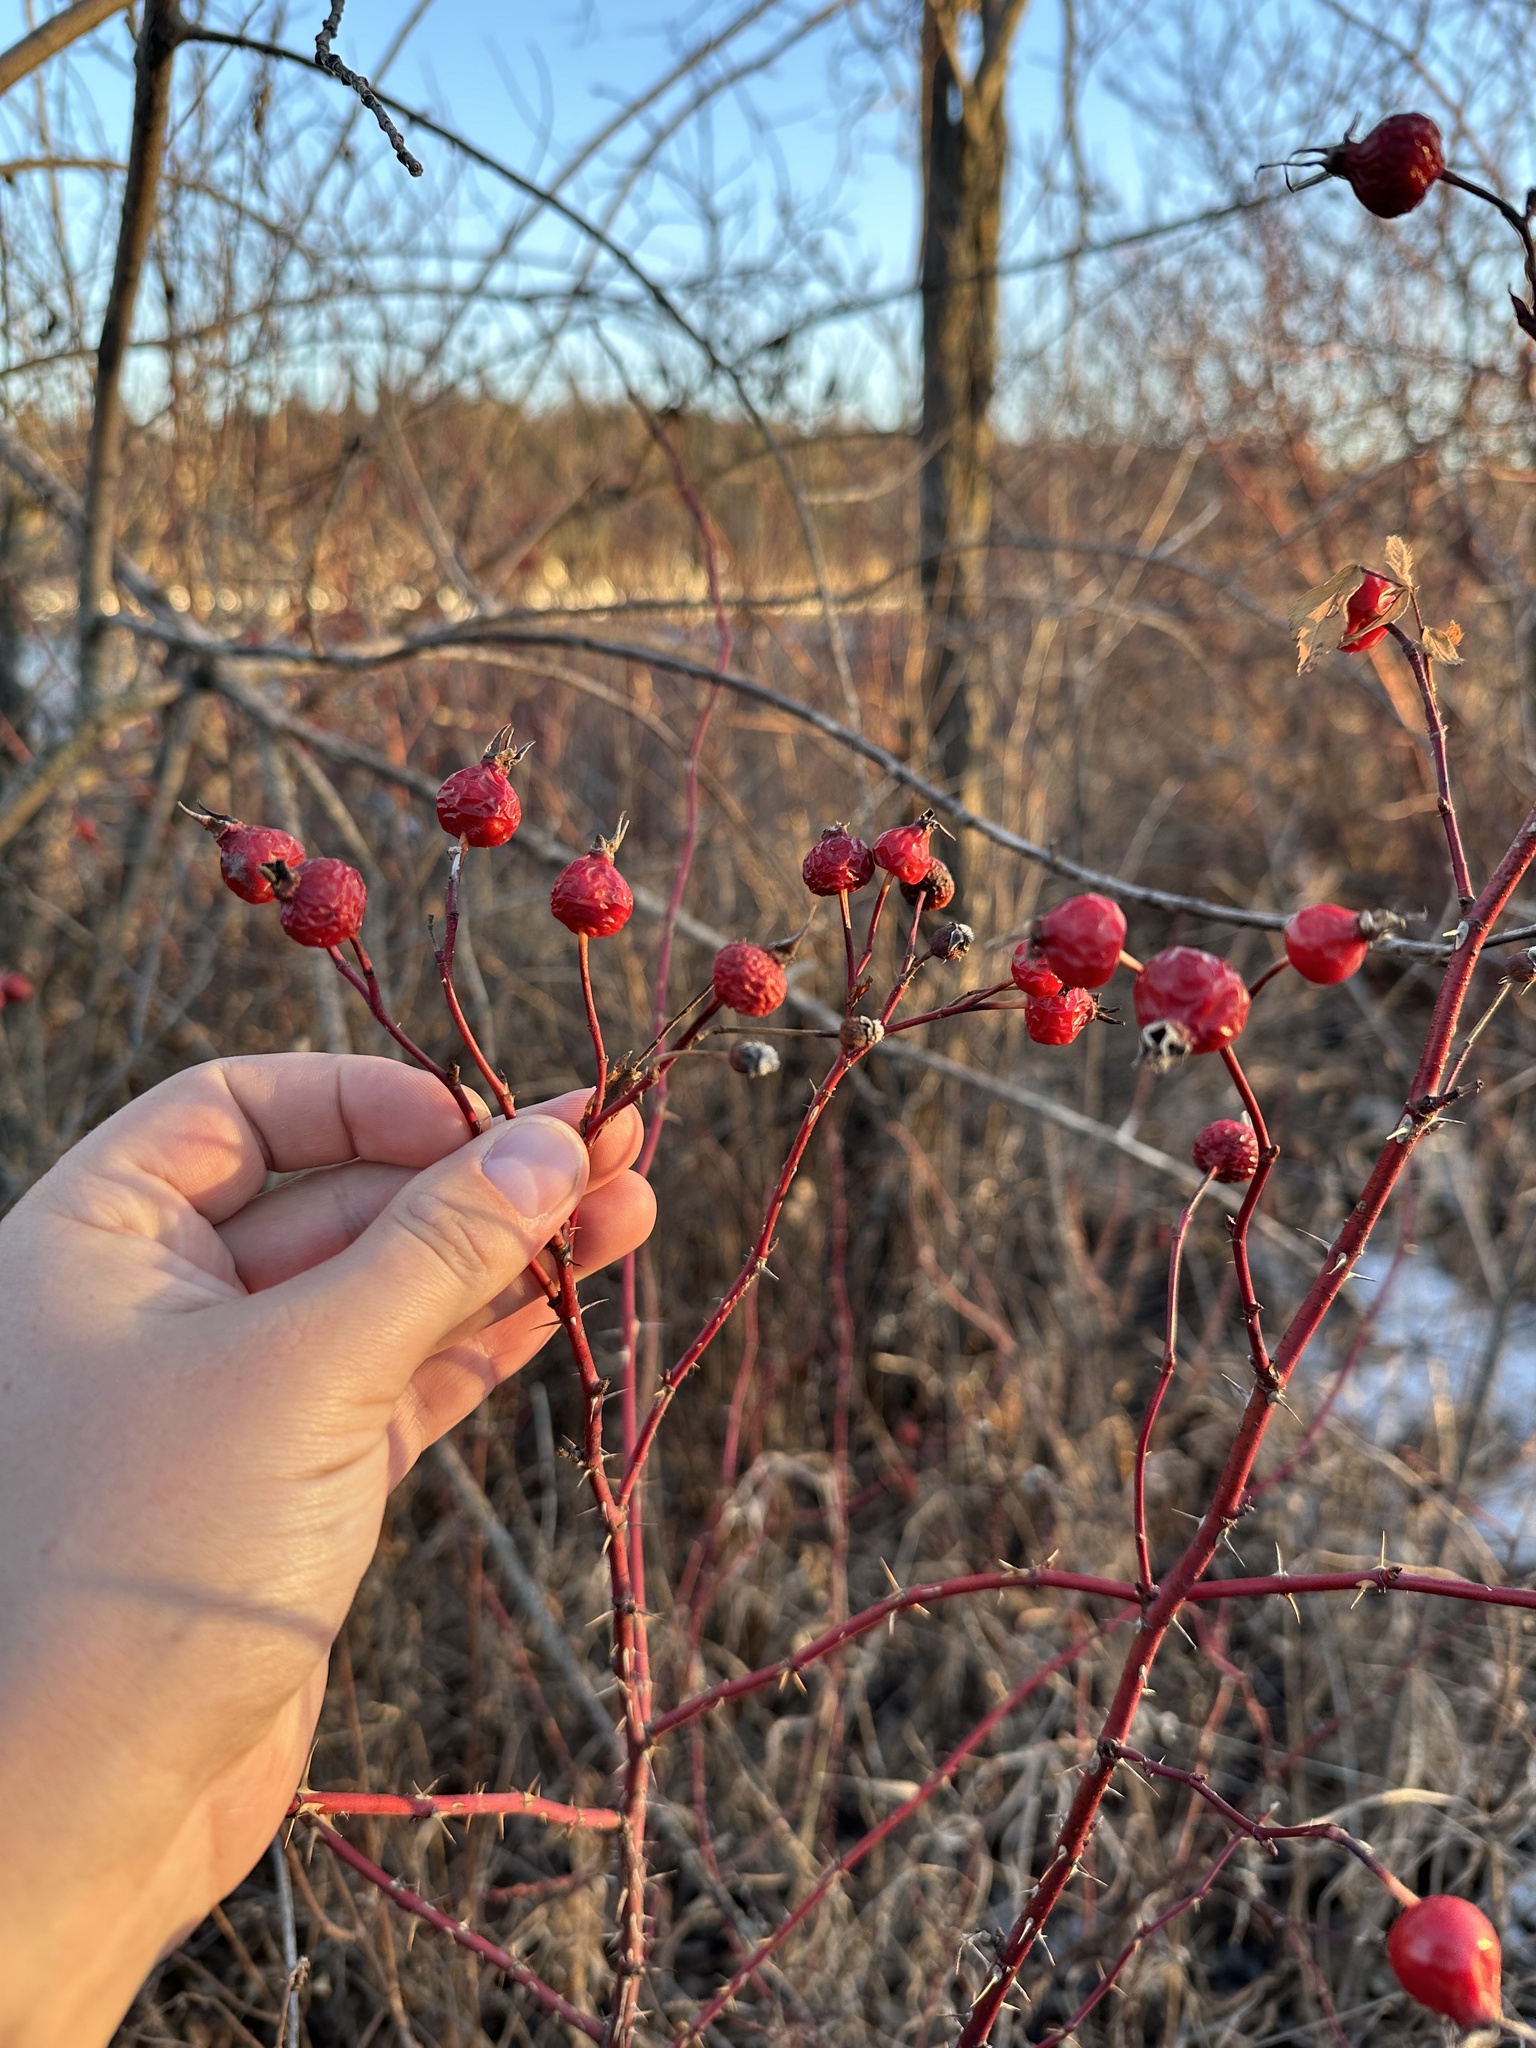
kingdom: Plantae
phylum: Tracheophyta
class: Magnoliopsida
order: Rosales
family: Rosaceae
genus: Rosa
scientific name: Rosa woodsii
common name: Woods's rose
